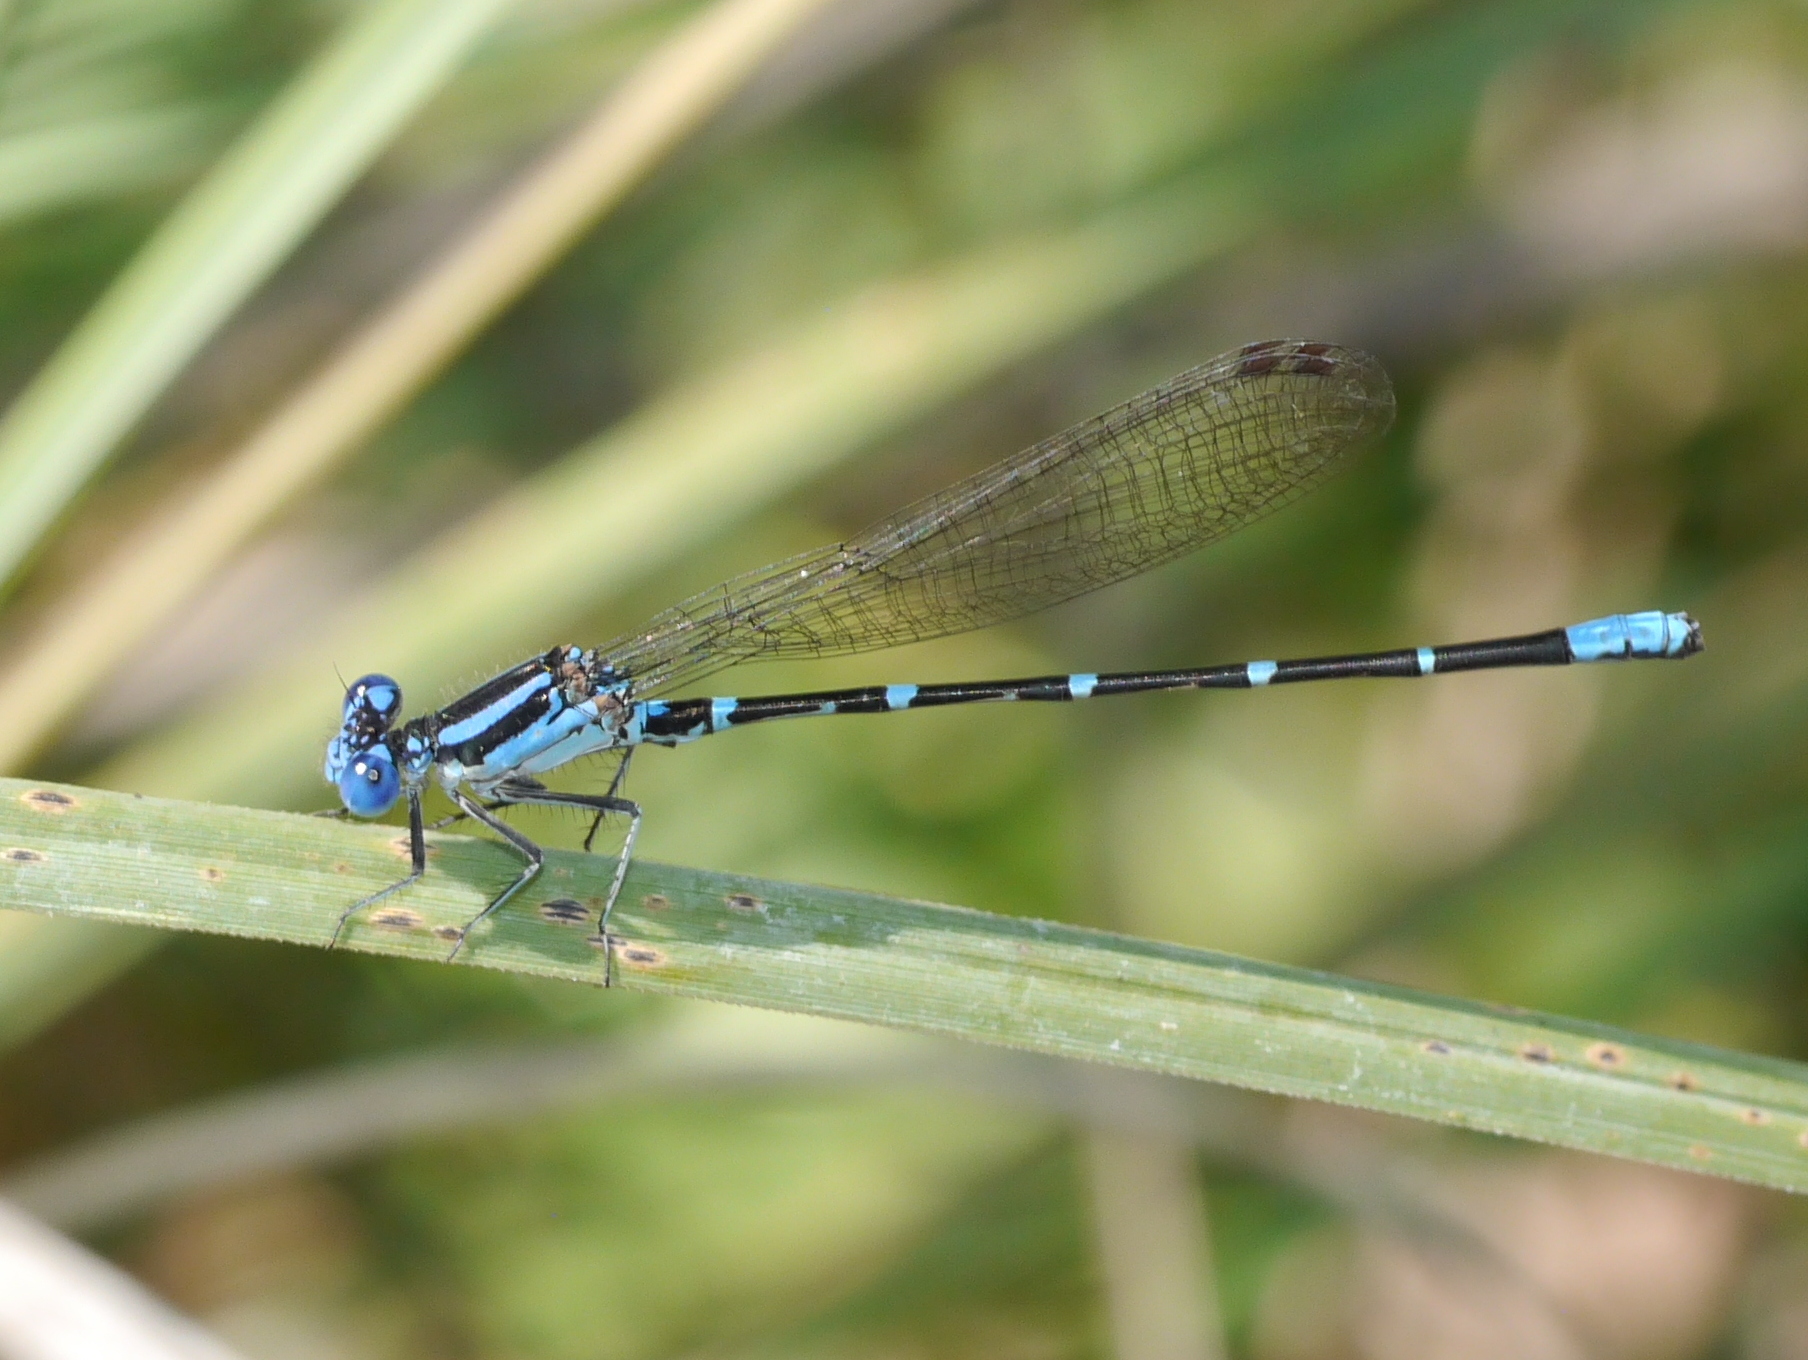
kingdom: Animalia
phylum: Arthropoda
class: Insecta
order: Odonata
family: Coenagrionidae
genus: Argia
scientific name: Argia sedula
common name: Blue-ringed dancer
